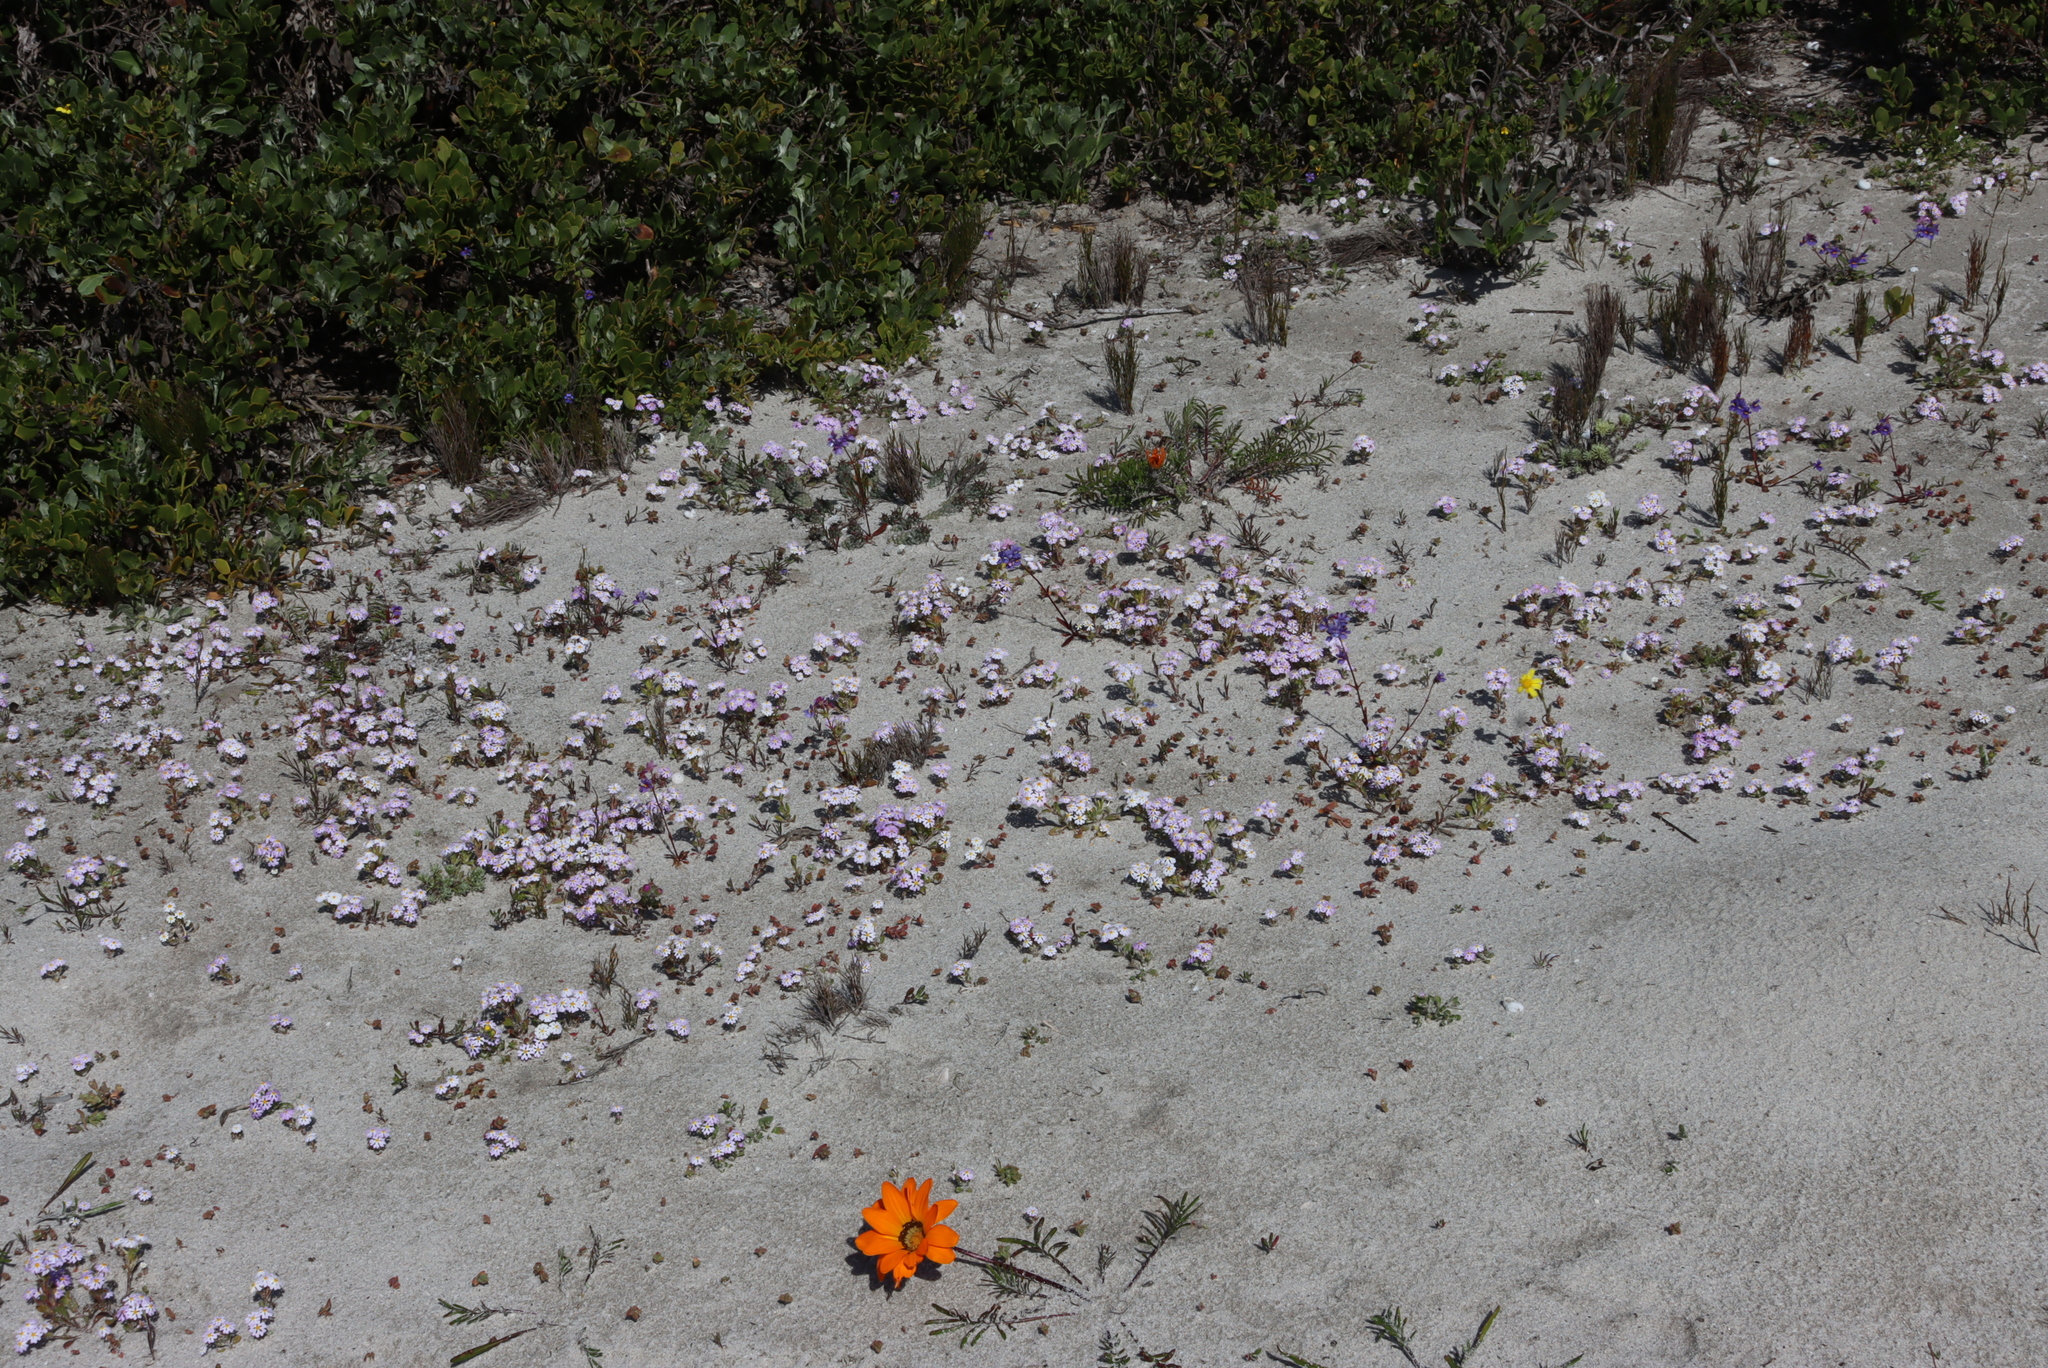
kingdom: Plantae
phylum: Tracheophyta
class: Magnoliopsida
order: Lamiales
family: Scrophulariaceae
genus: Zaluzianskya
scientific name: Zaluzianskya villosa
